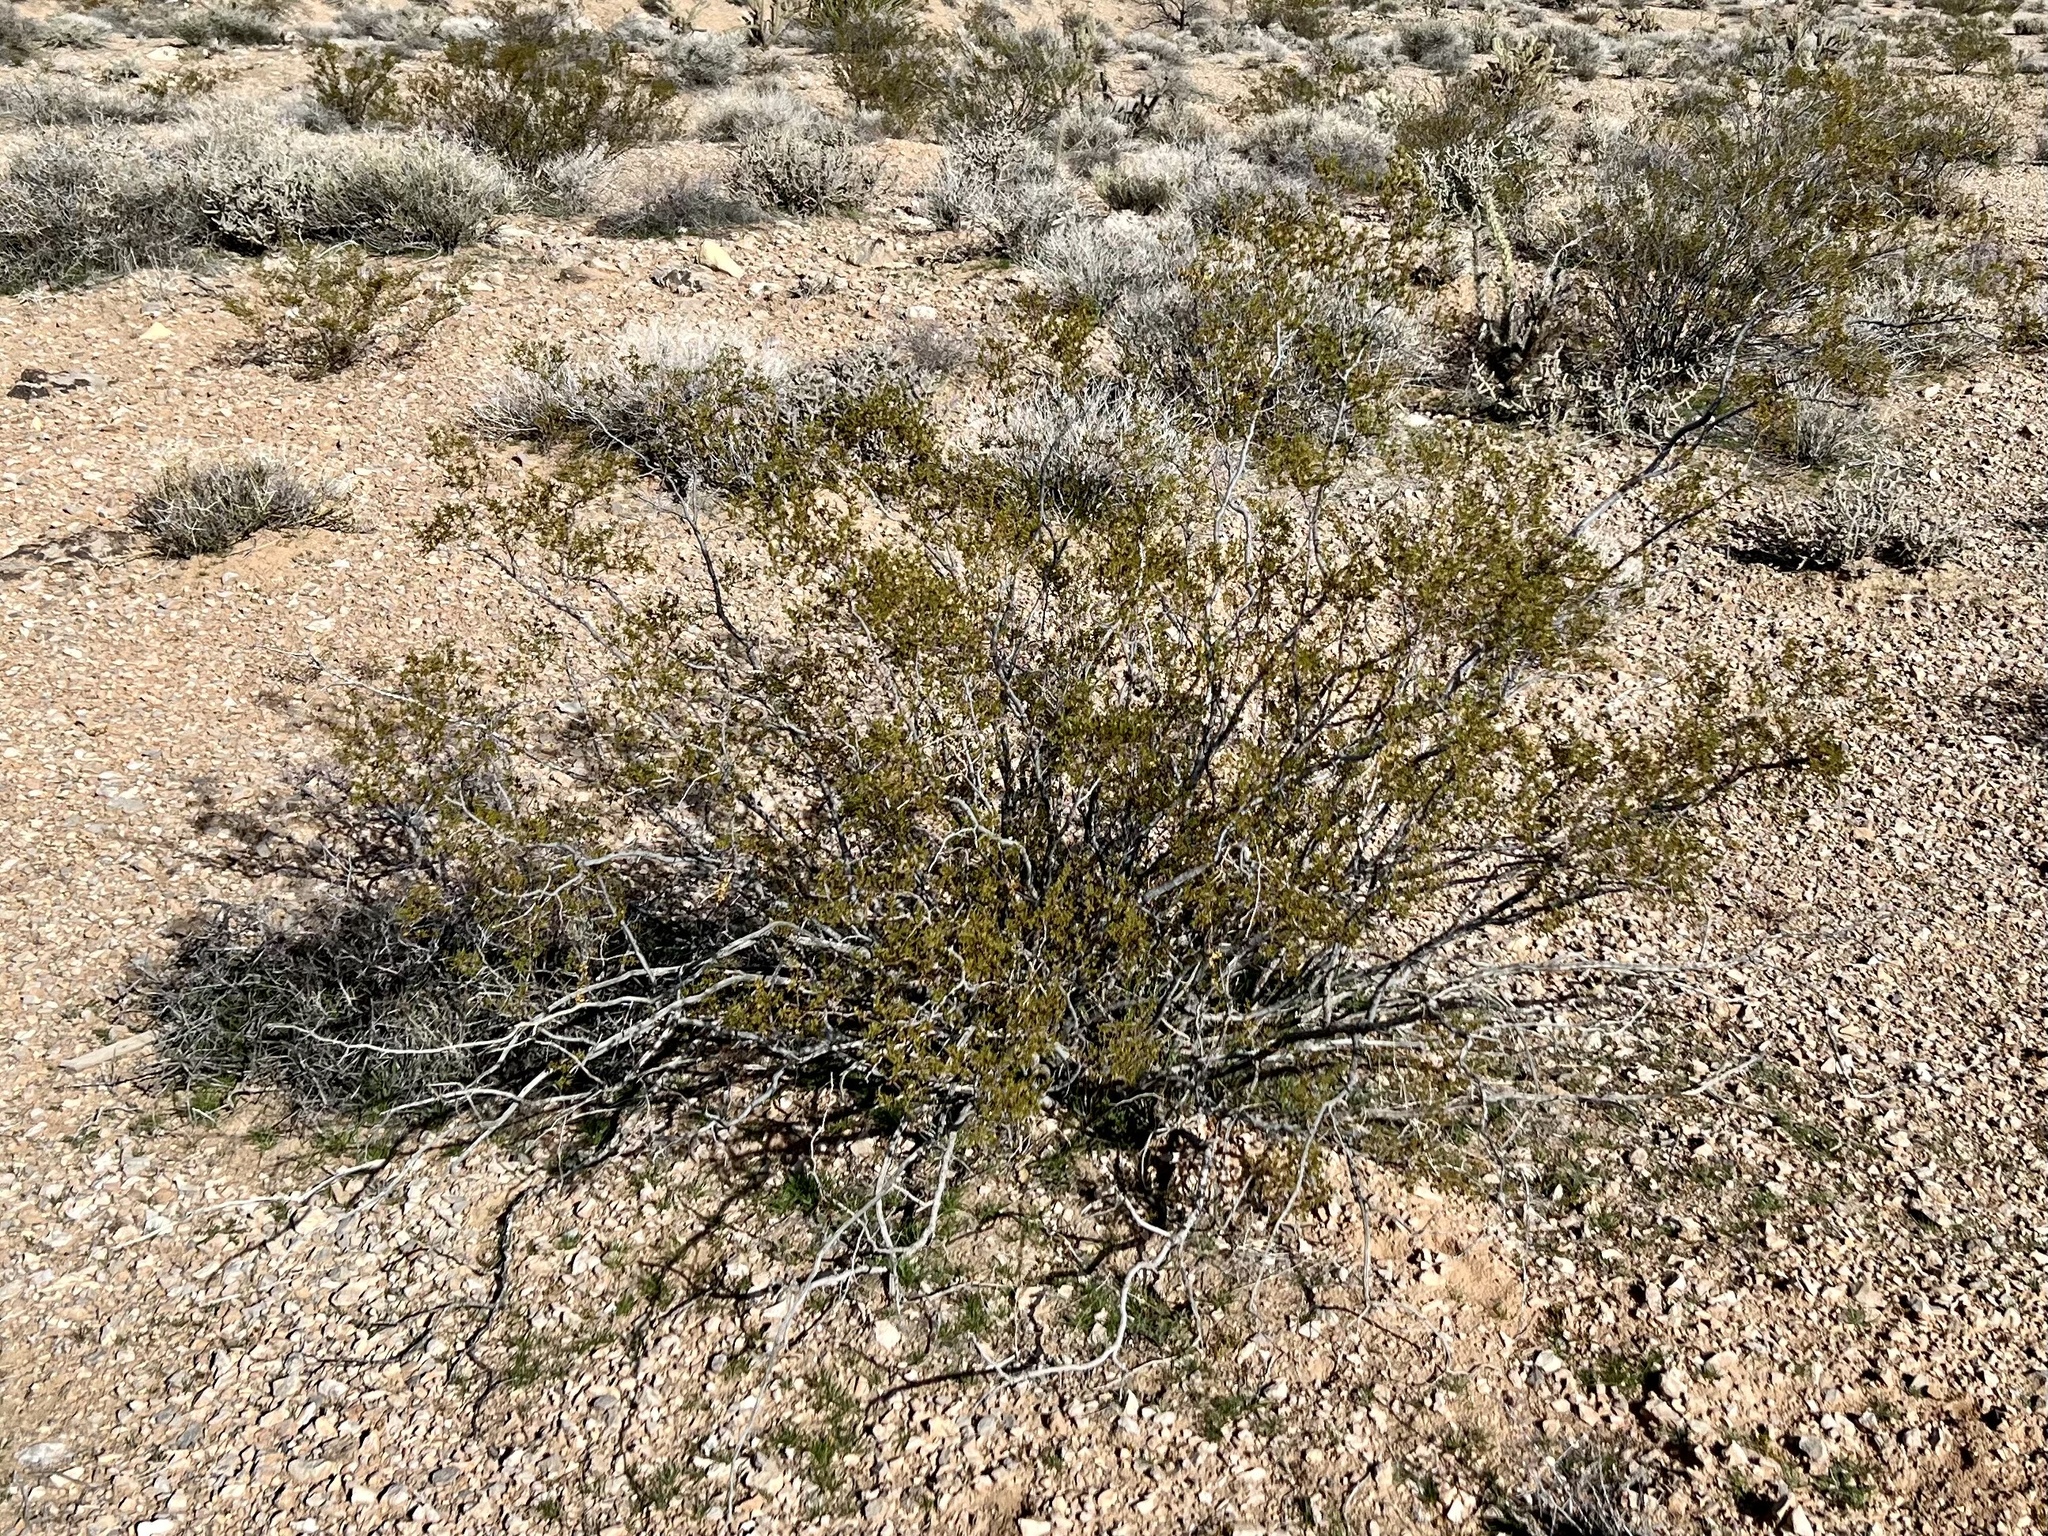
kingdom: Plantae
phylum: Tracheophyta
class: Magnoliopsida
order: Zygophyllales
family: Zygophyllaceae
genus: Larrea
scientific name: Larrea tridentata
